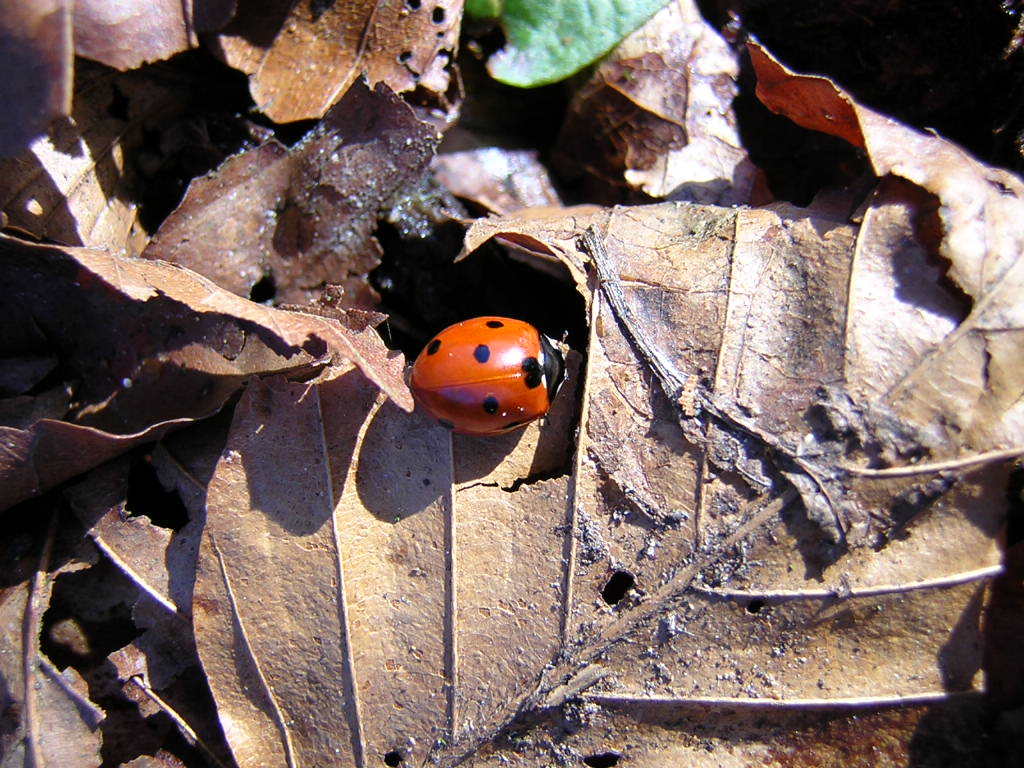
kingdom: Animalia
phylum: Arthropoda
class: Insecta
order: Coleoptera
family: Coccinellidae
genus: Coccinella
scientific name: Coccinella septempunctata
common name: Sevenspotted lady beetle
